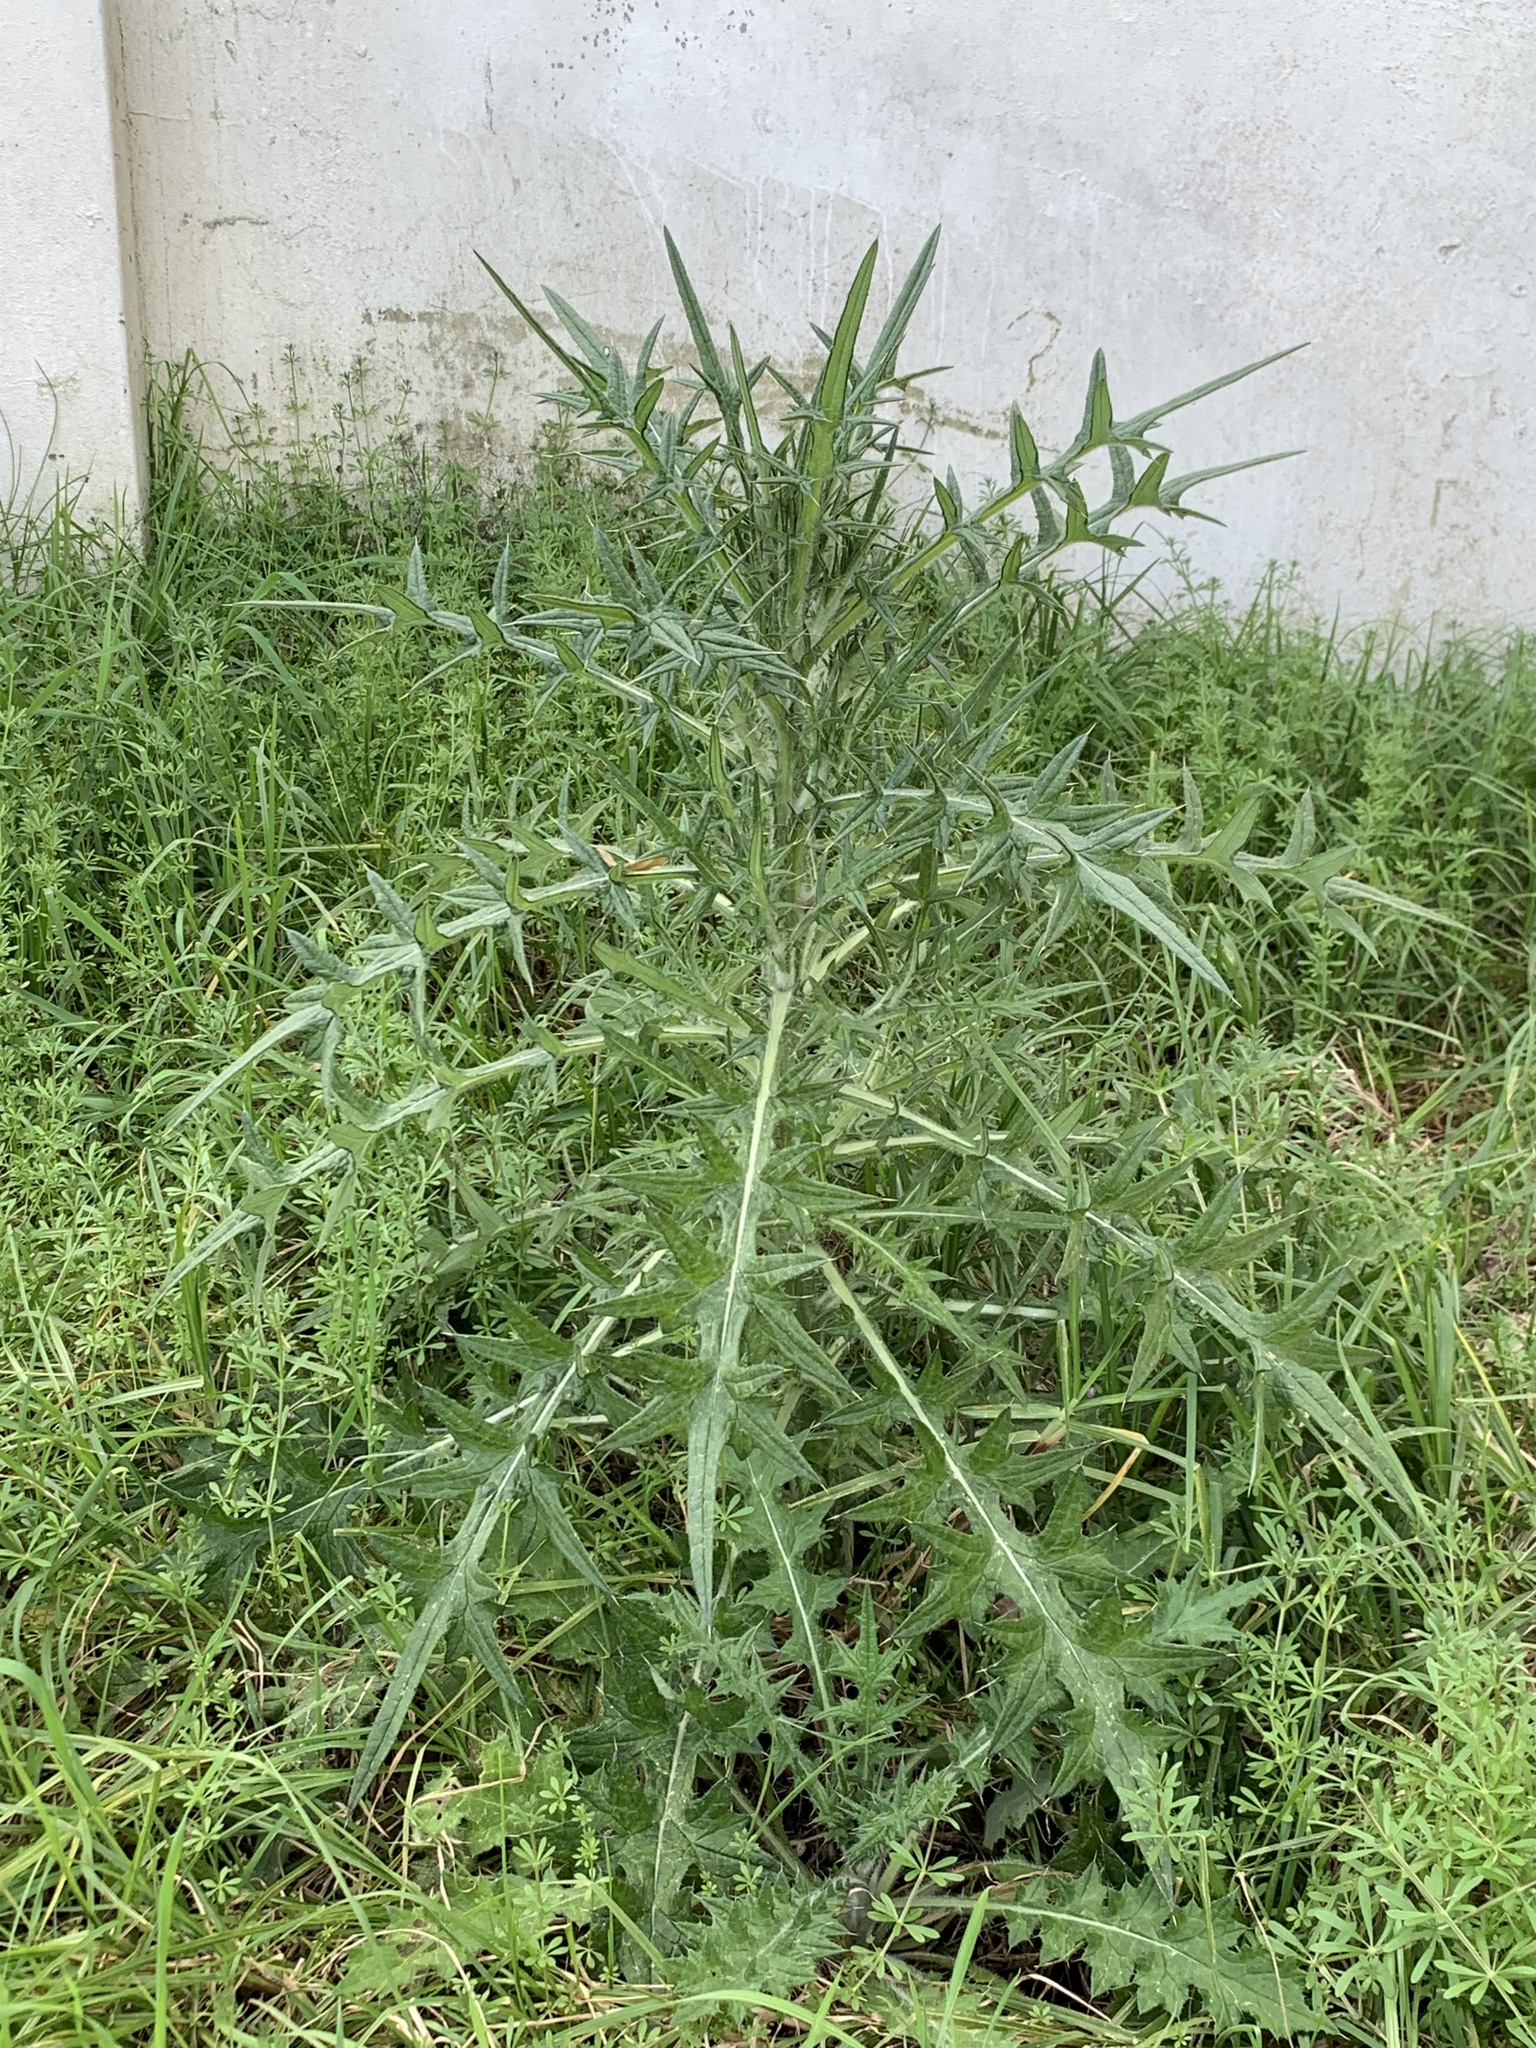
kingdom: Plantae
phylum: Tracheophyta
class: Magnoliopsida
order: Asterales
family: Asteraceae
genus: Cirsium
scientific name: Cirsium vulgare
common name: Bull thistle
